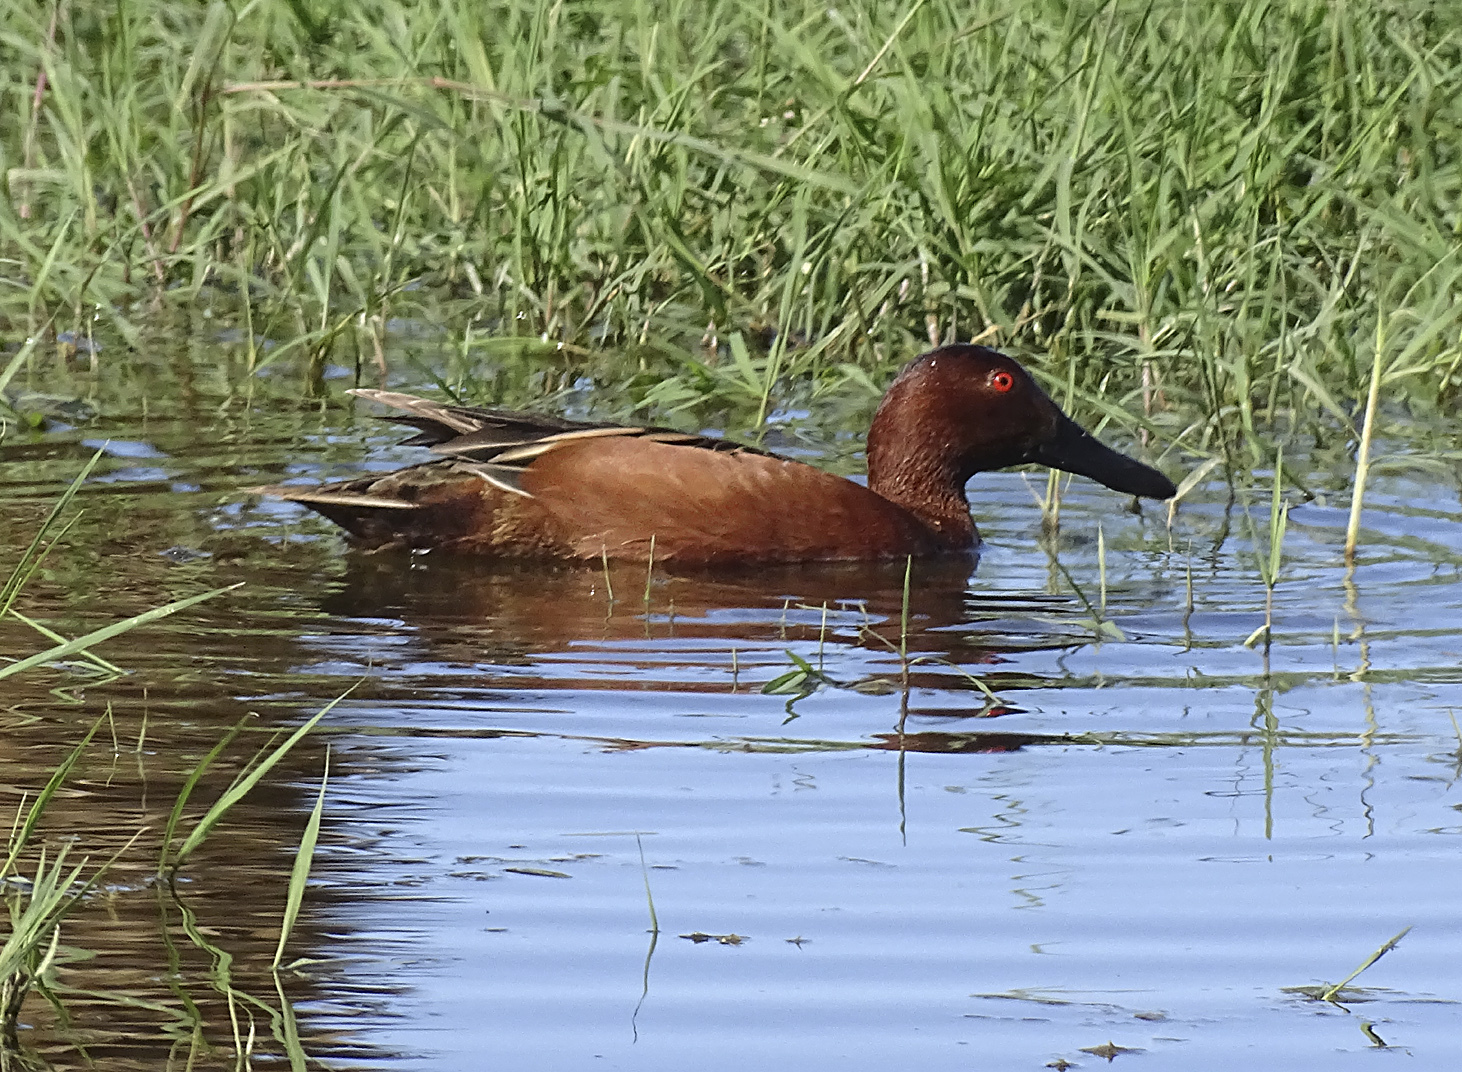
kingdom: Animalia
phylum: Chordata
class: Aves
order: Anseriformes
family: Anatidae
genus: Spatula
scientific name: Spatula cyanoptera
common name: Cinnamon teal
